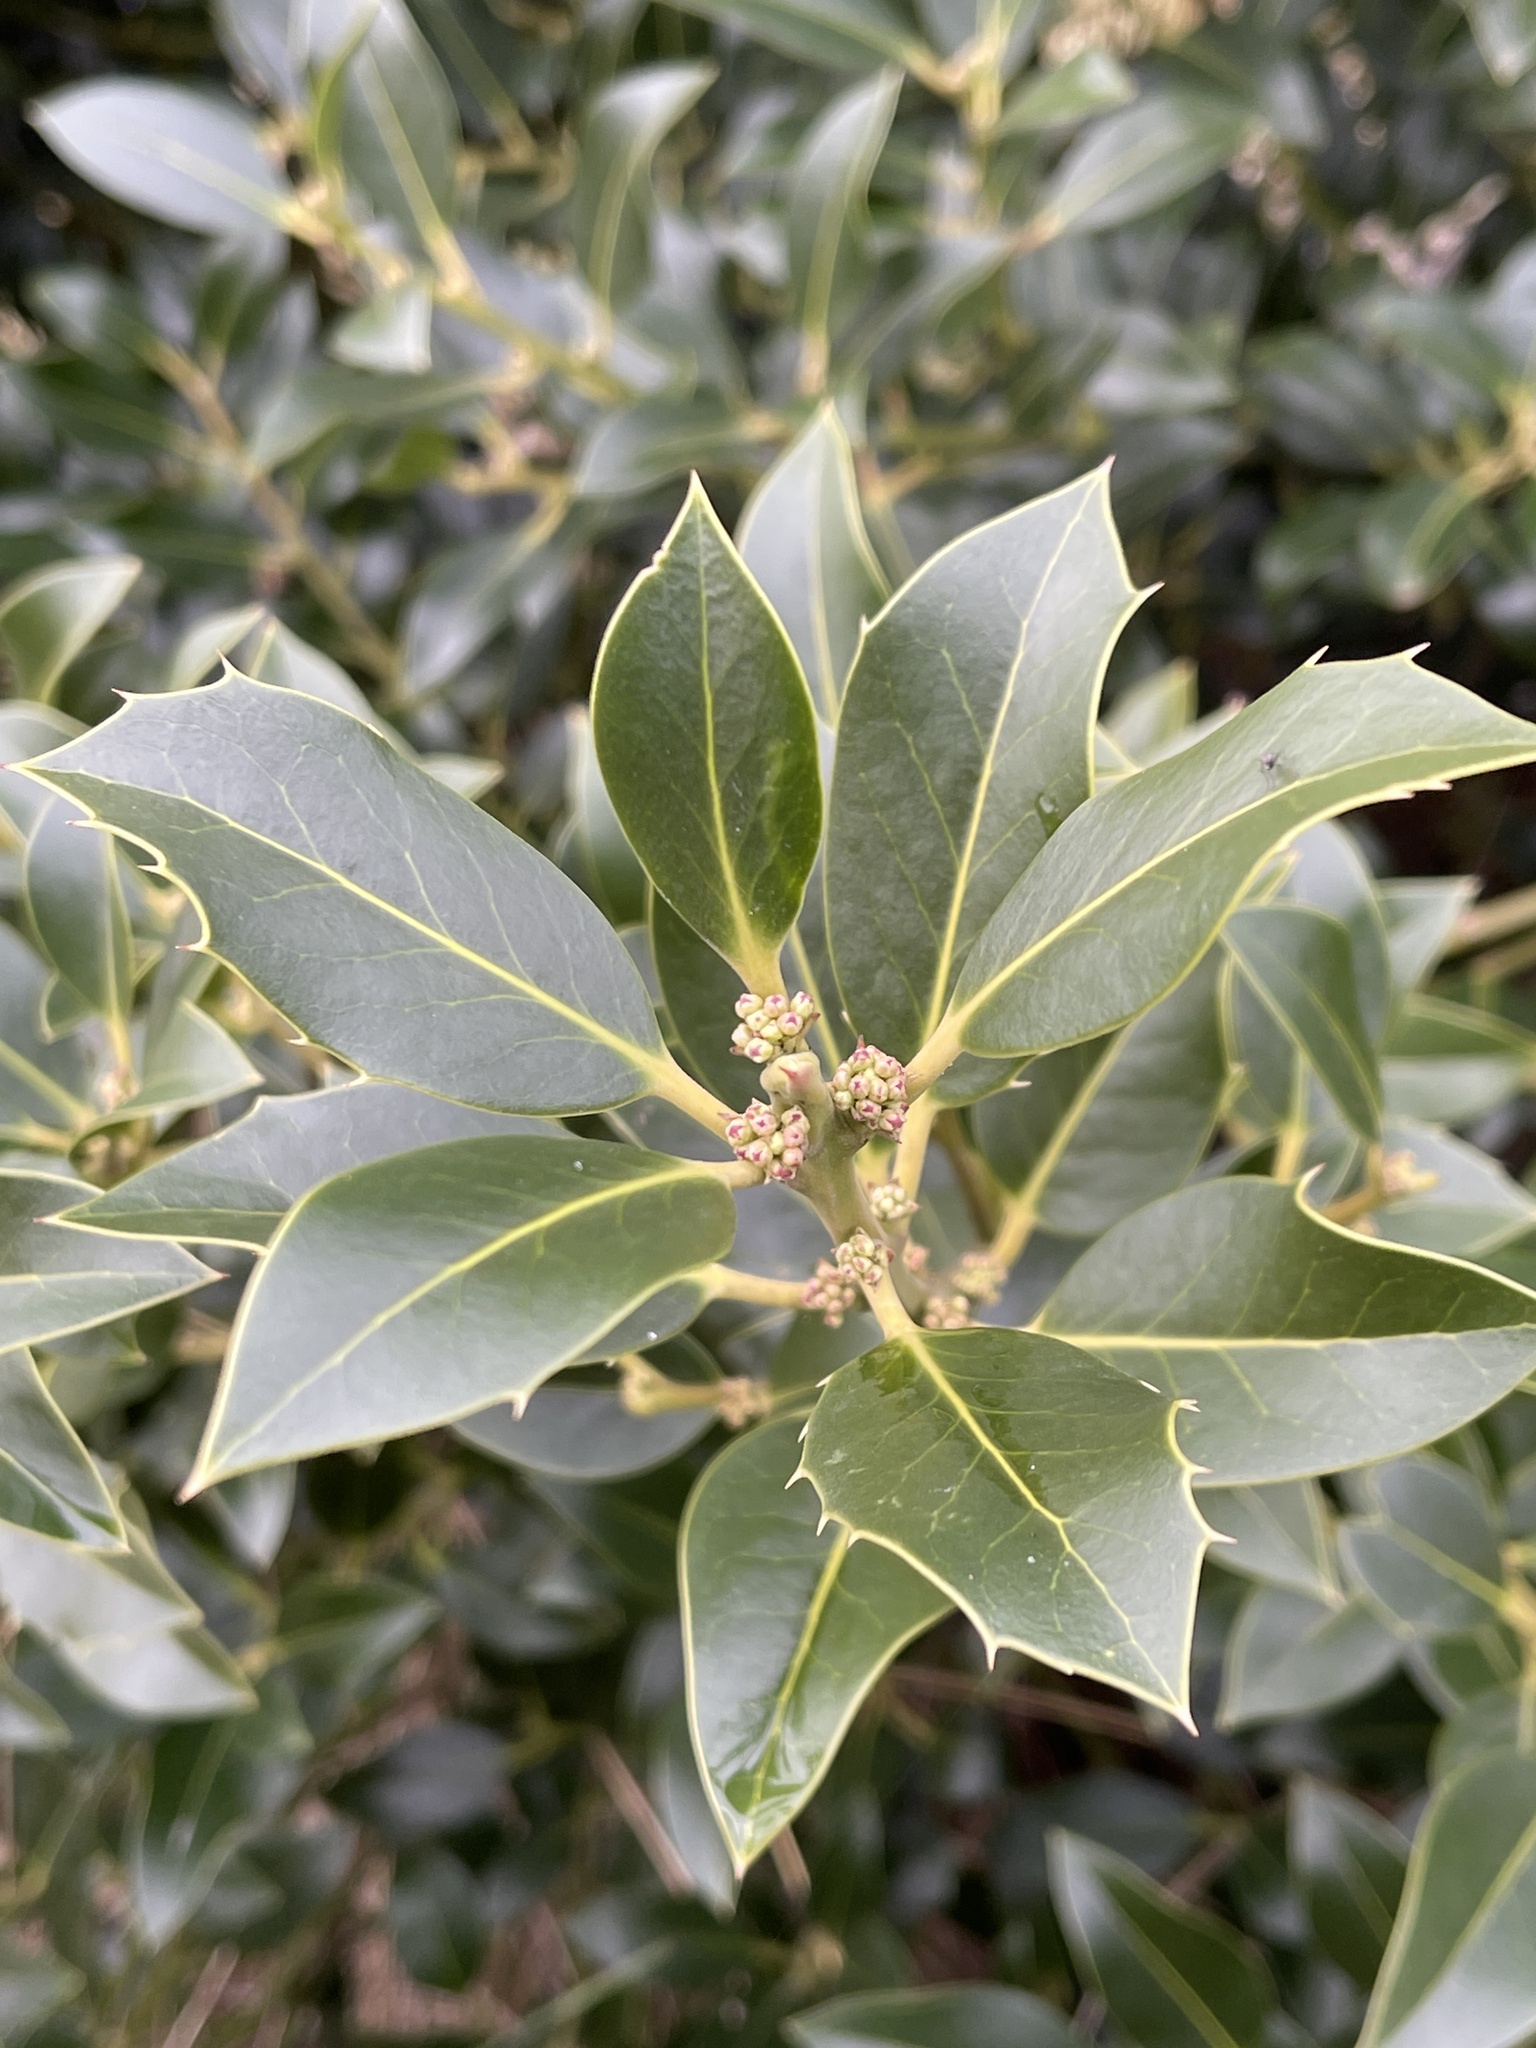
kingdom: Plantae
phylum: Tracheophyta
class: Magnoliopsida
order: Aquifoliales
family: Aquifoliaceae
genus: Ilex
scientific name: Ilex aquifolium
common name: English holly
